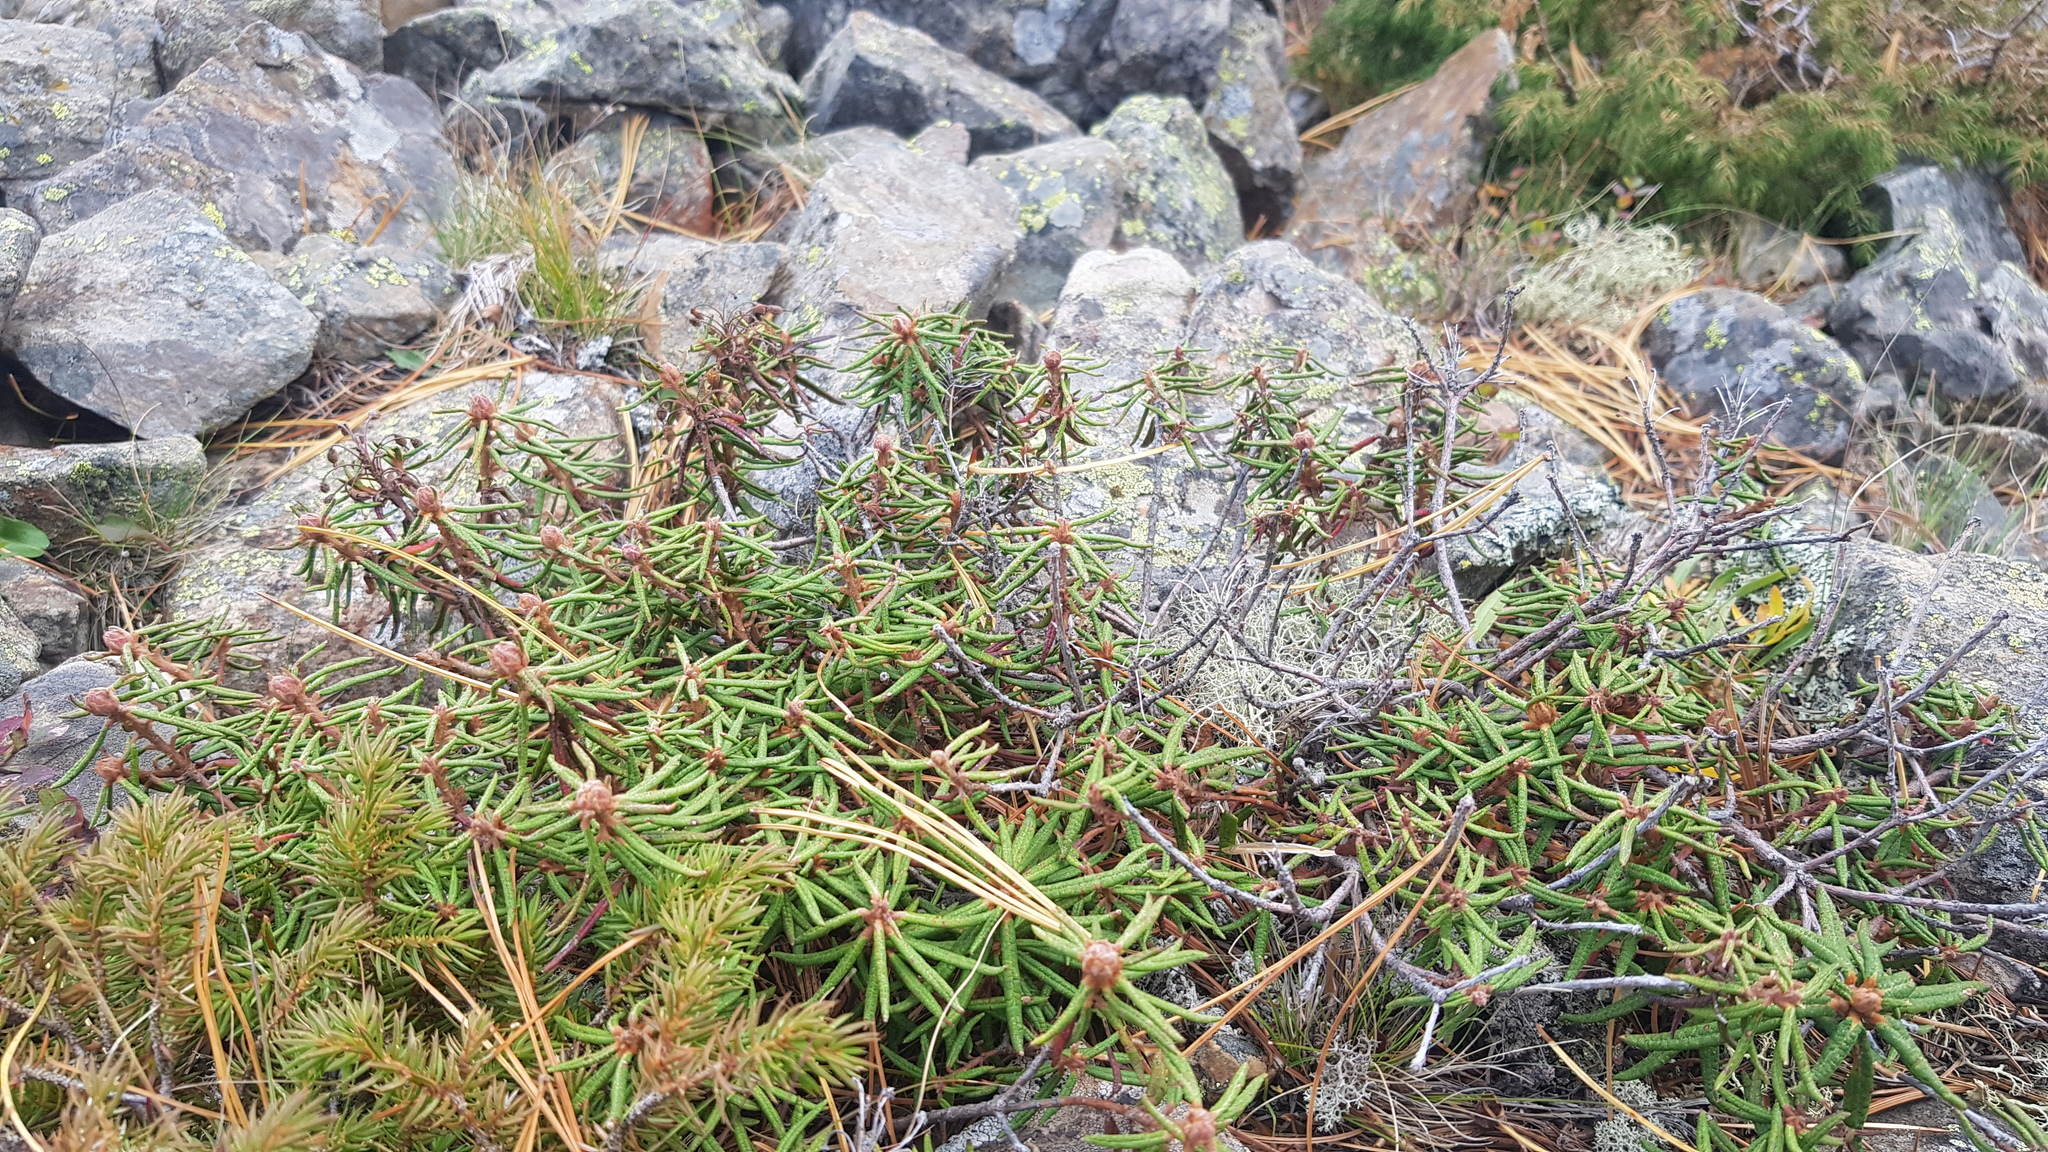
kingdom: Plantae
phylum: Tracheophyta
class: Magnoliopsida
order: Ericales
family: Ericaceae
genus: Rhododendron
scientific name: Rhododendron tomentosum
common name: Marsh labrador tea
